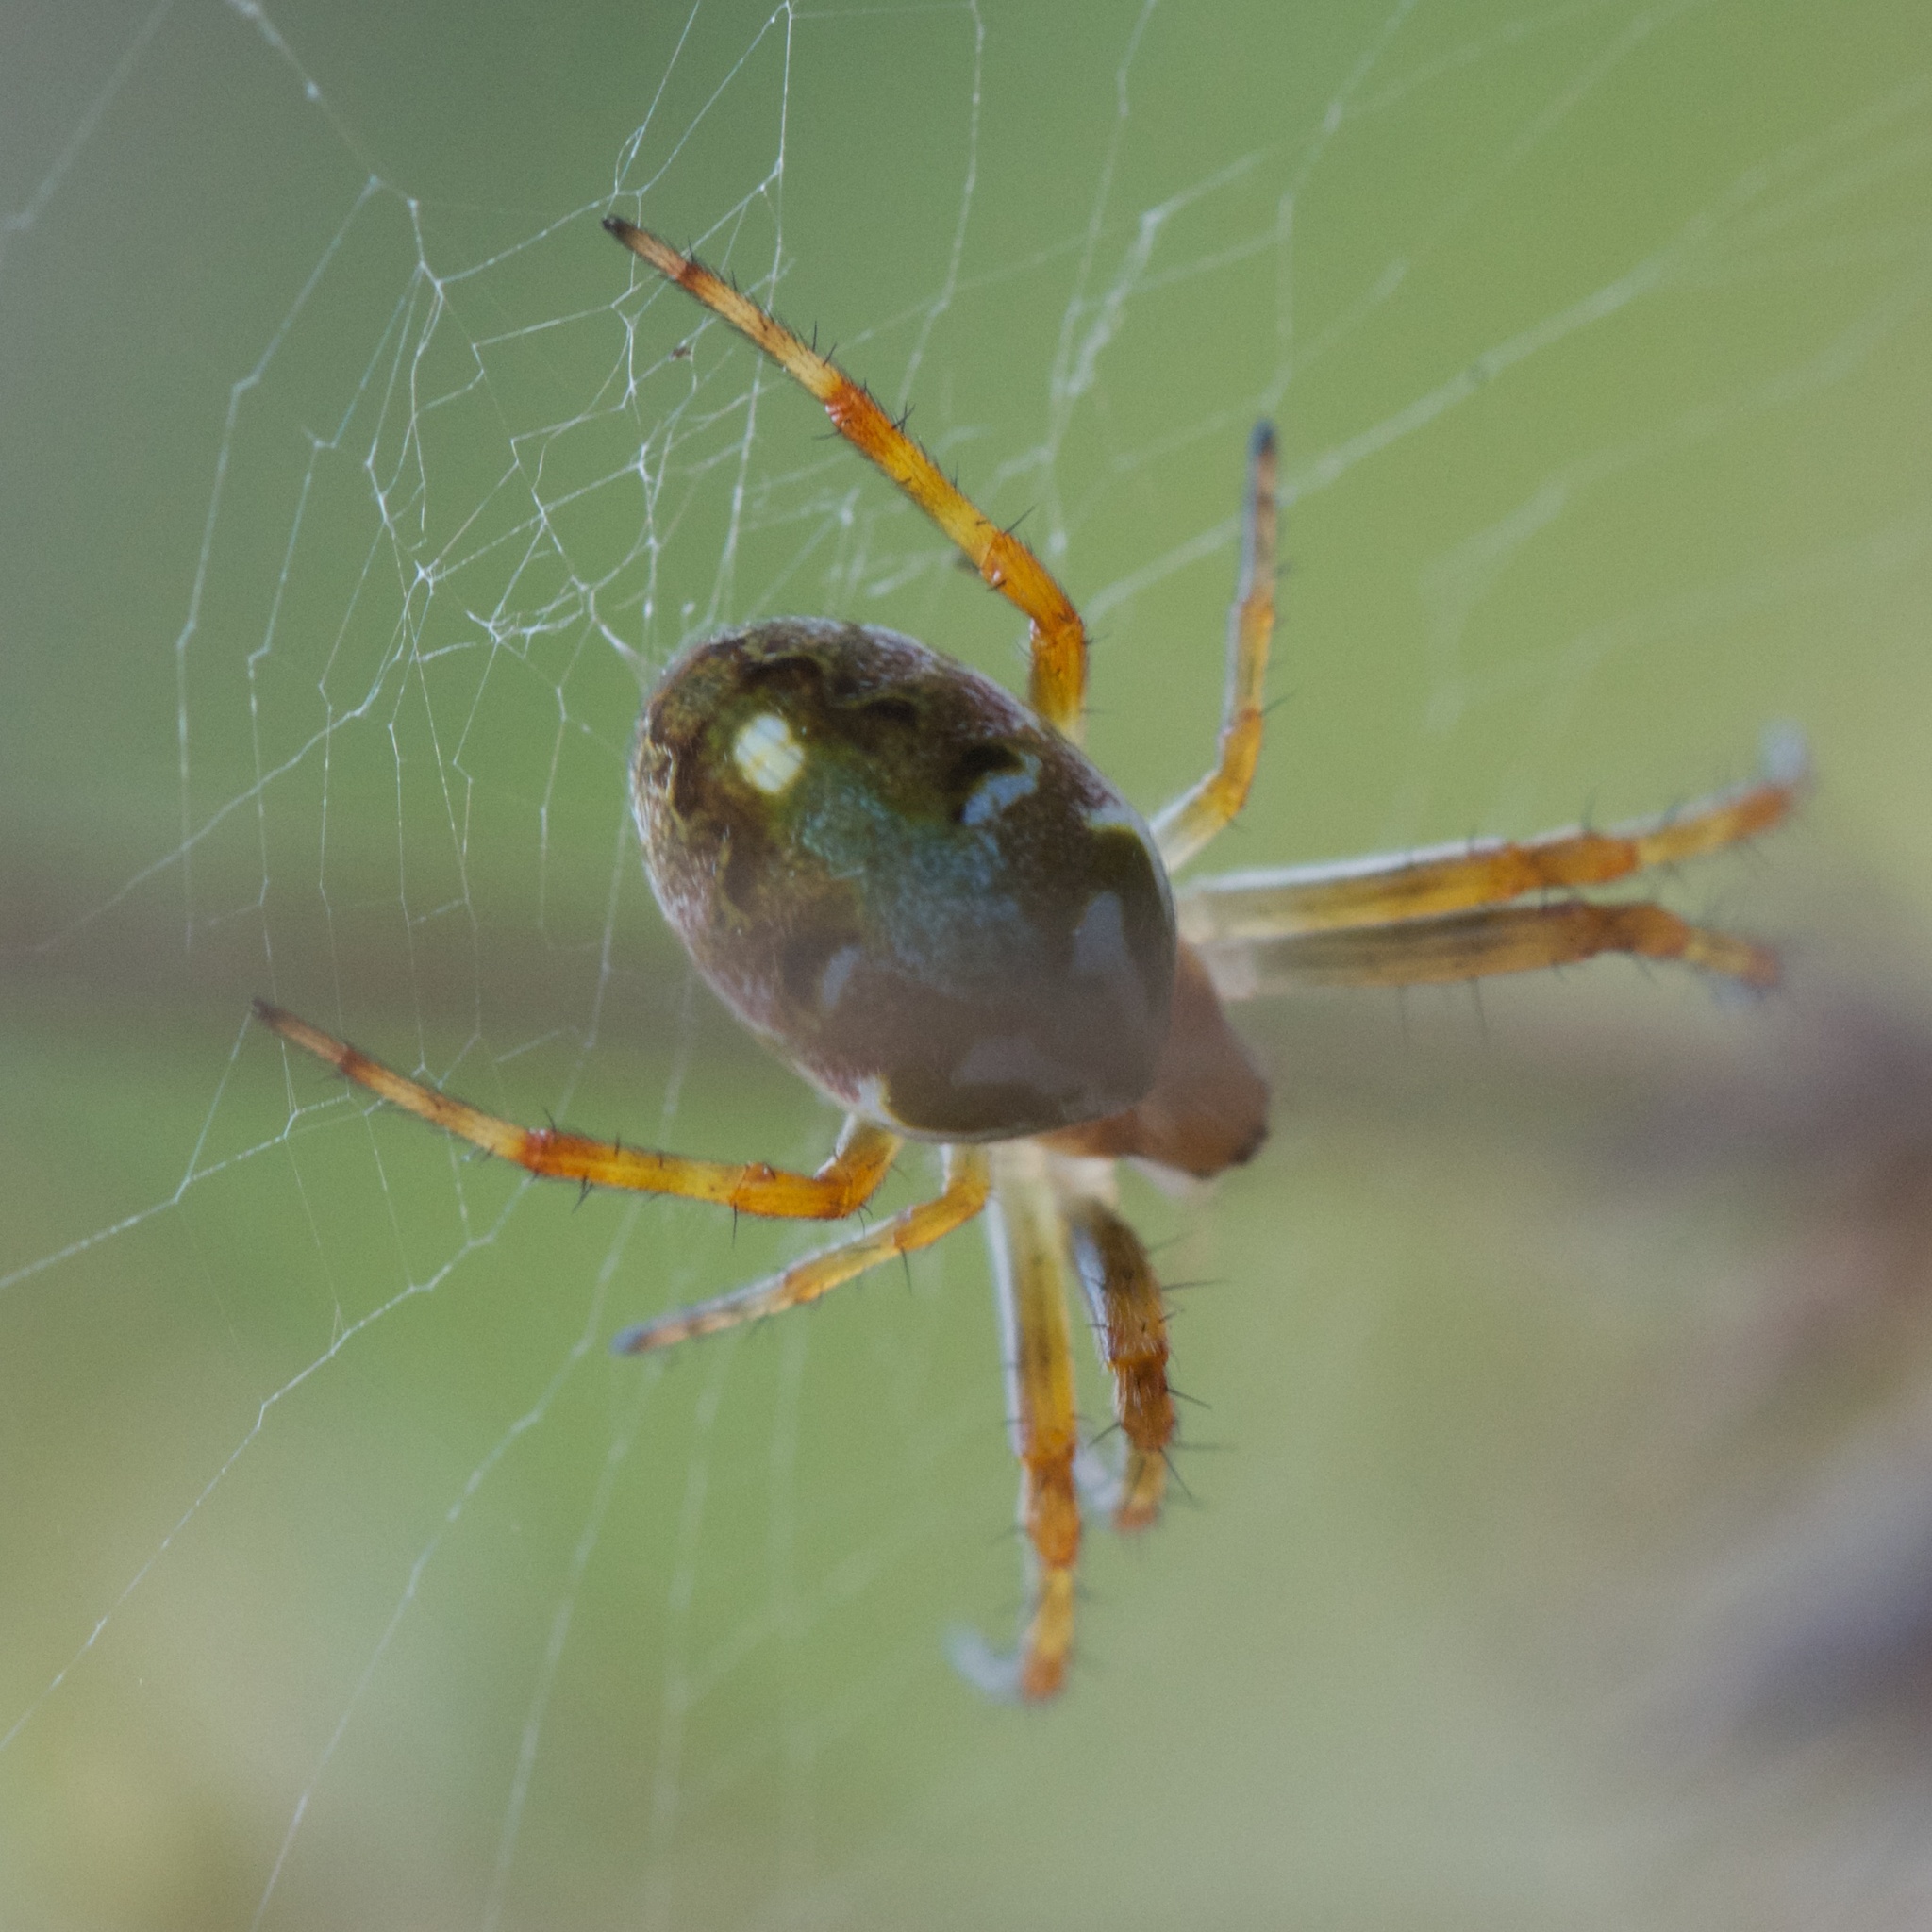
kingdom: Animalia
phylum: Arthropoda
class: Arachnida
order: Araneae
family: Araneidae
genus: Novaranea
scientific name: Novaranea queribunda
